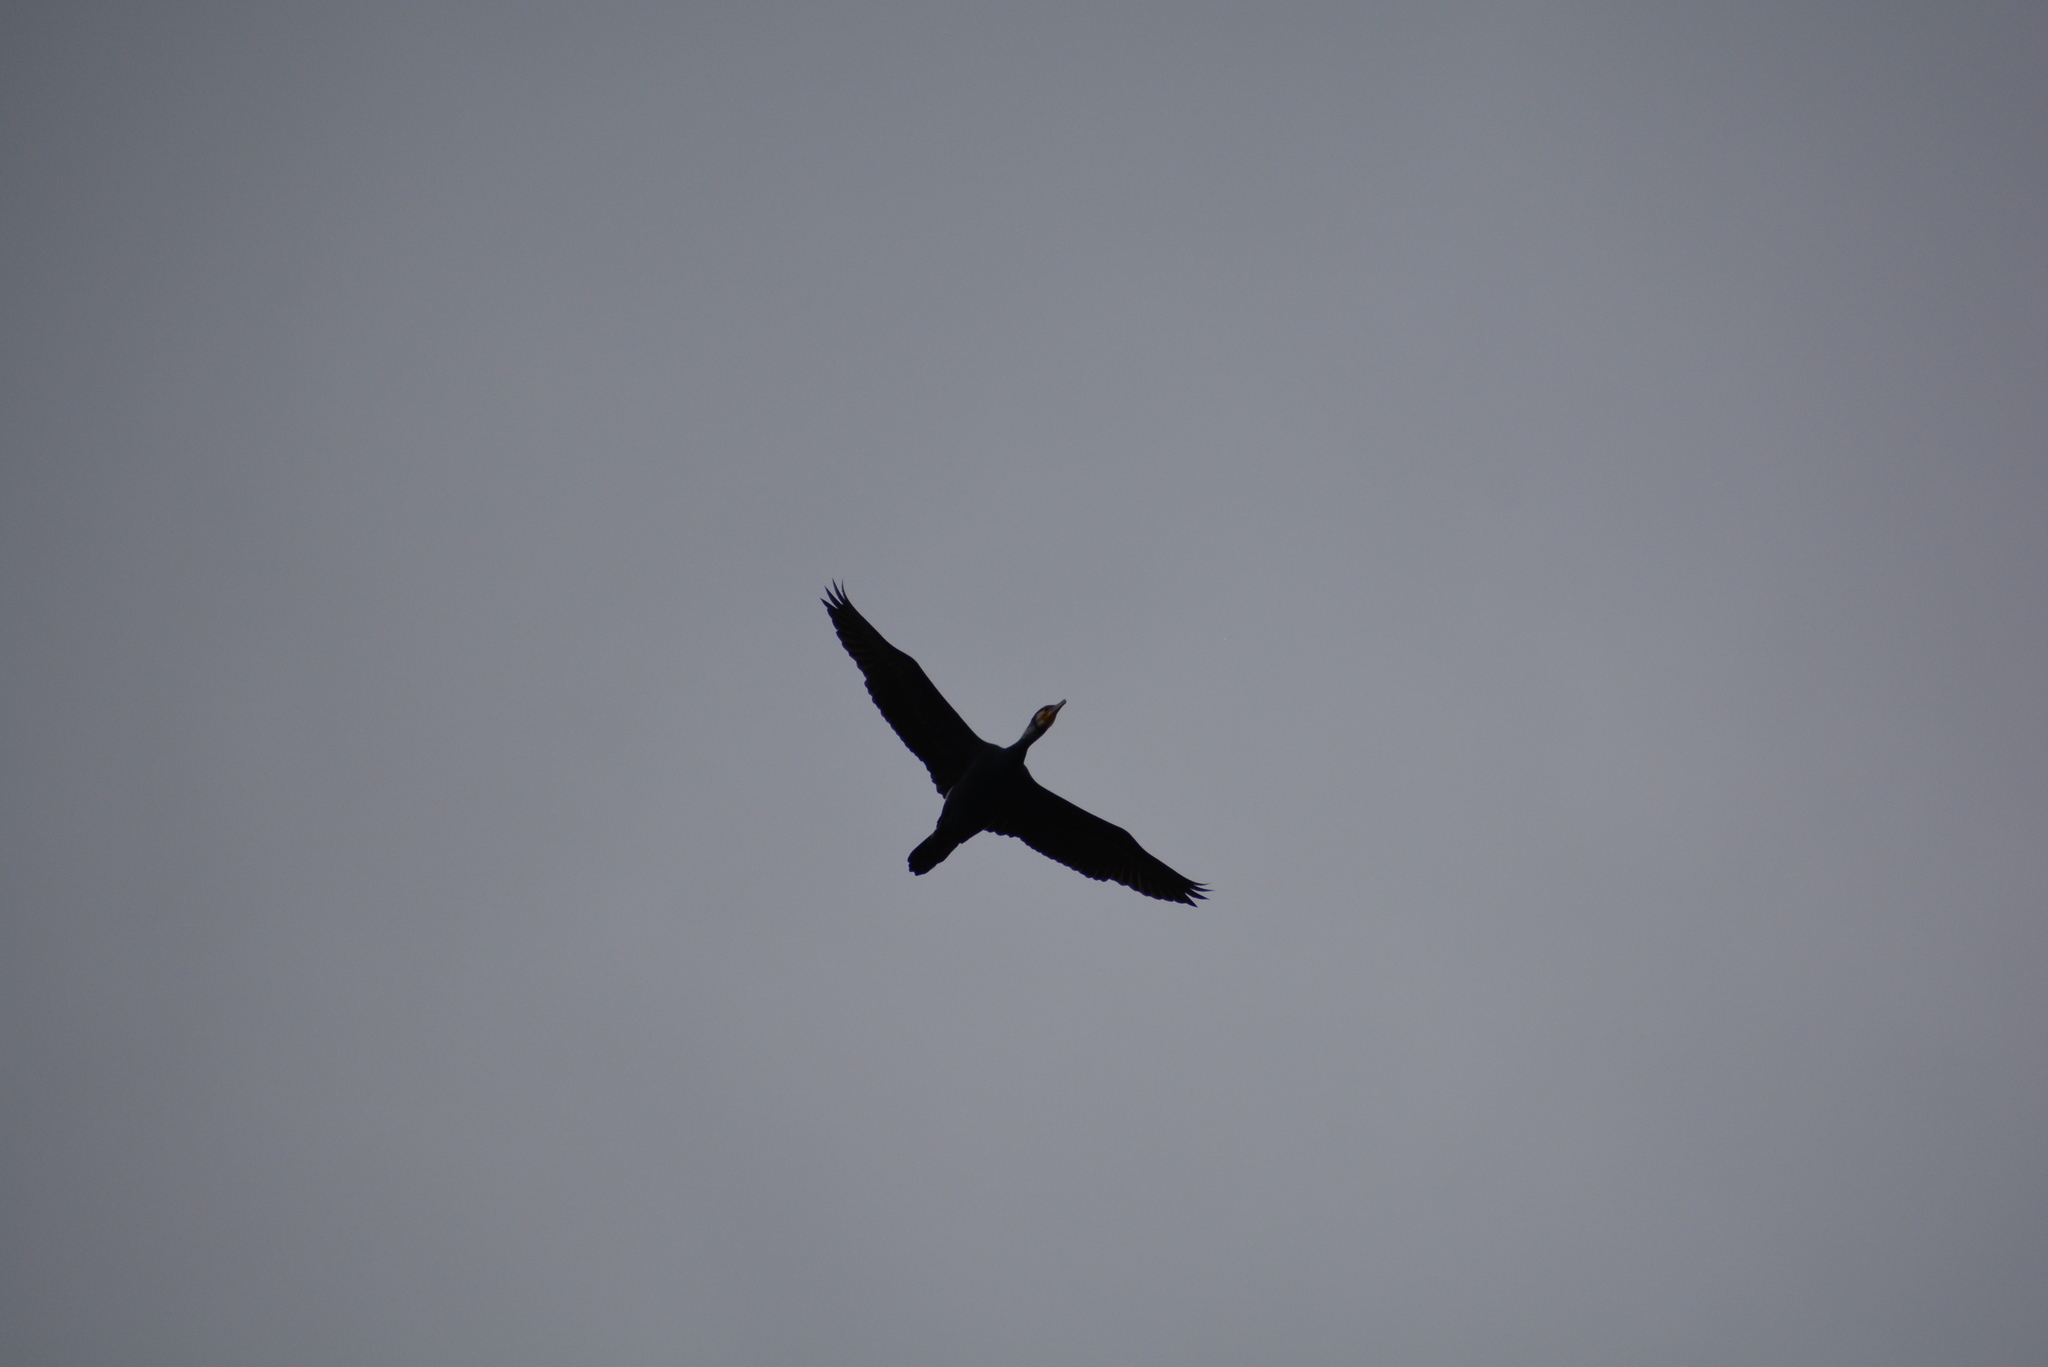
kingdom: Animalia
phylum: Chordata
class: Aves
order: Suliformes
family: Phalacrocoracidae
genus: Phalacrocorax
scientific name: Phalacrocorax carbo
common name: Great cormorant
